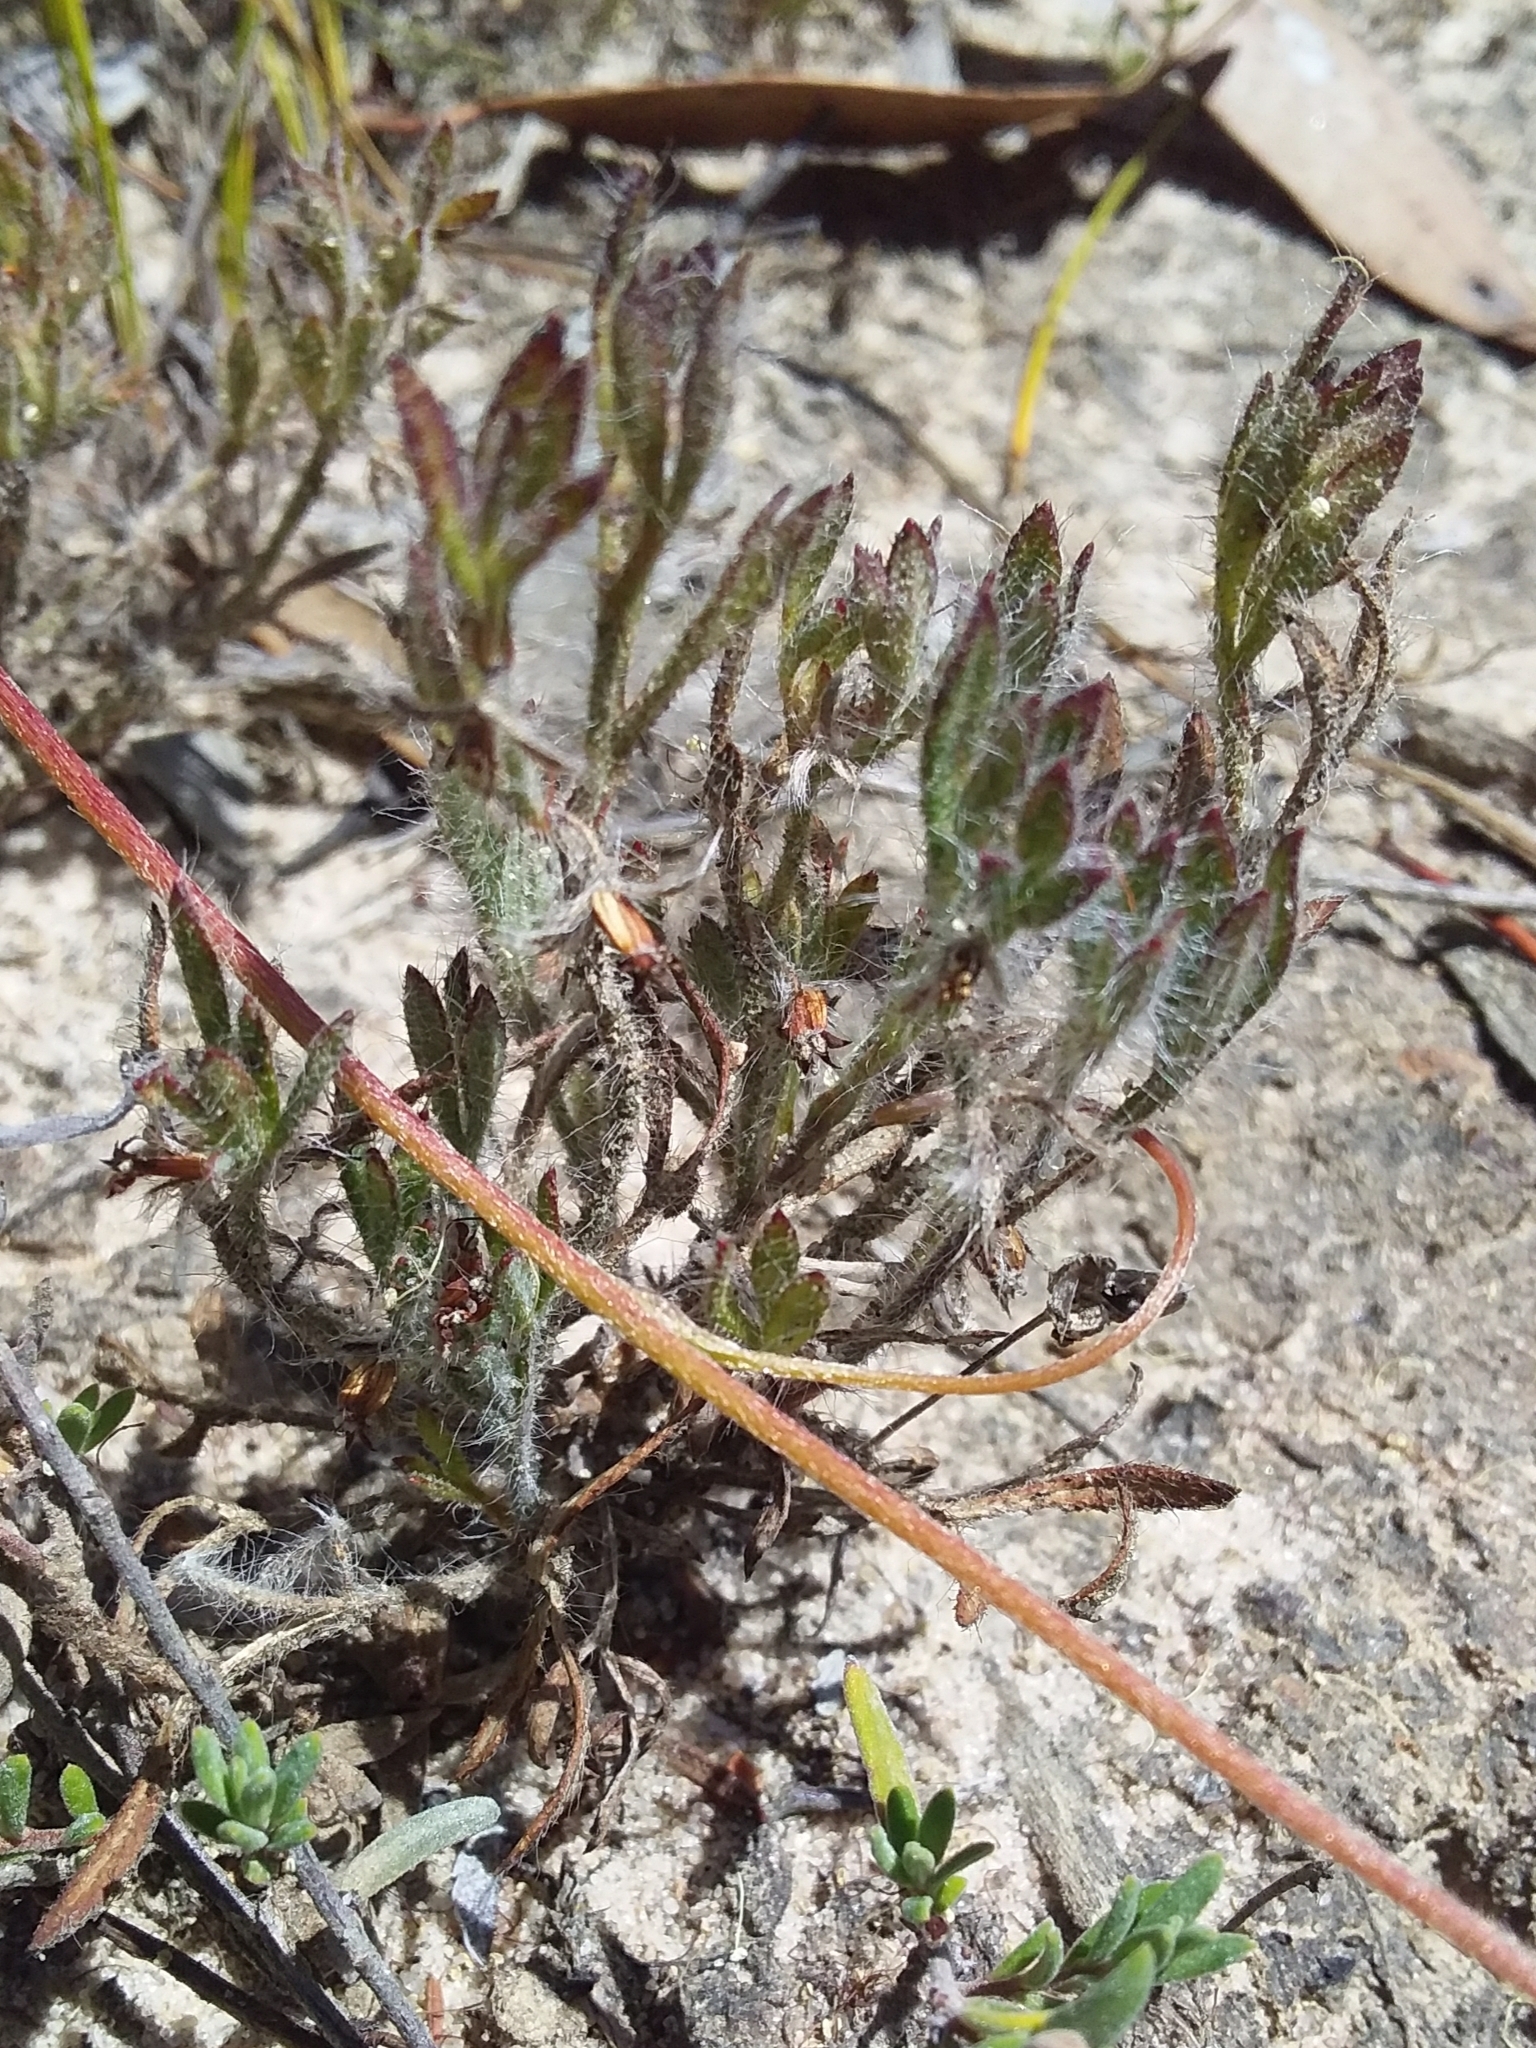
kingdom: Plantae
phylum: Tracheophyta
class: Magnoliopsida
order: Apiales
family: Apiaceae
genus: Xanthosia
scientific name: Xanthosia huegelii
